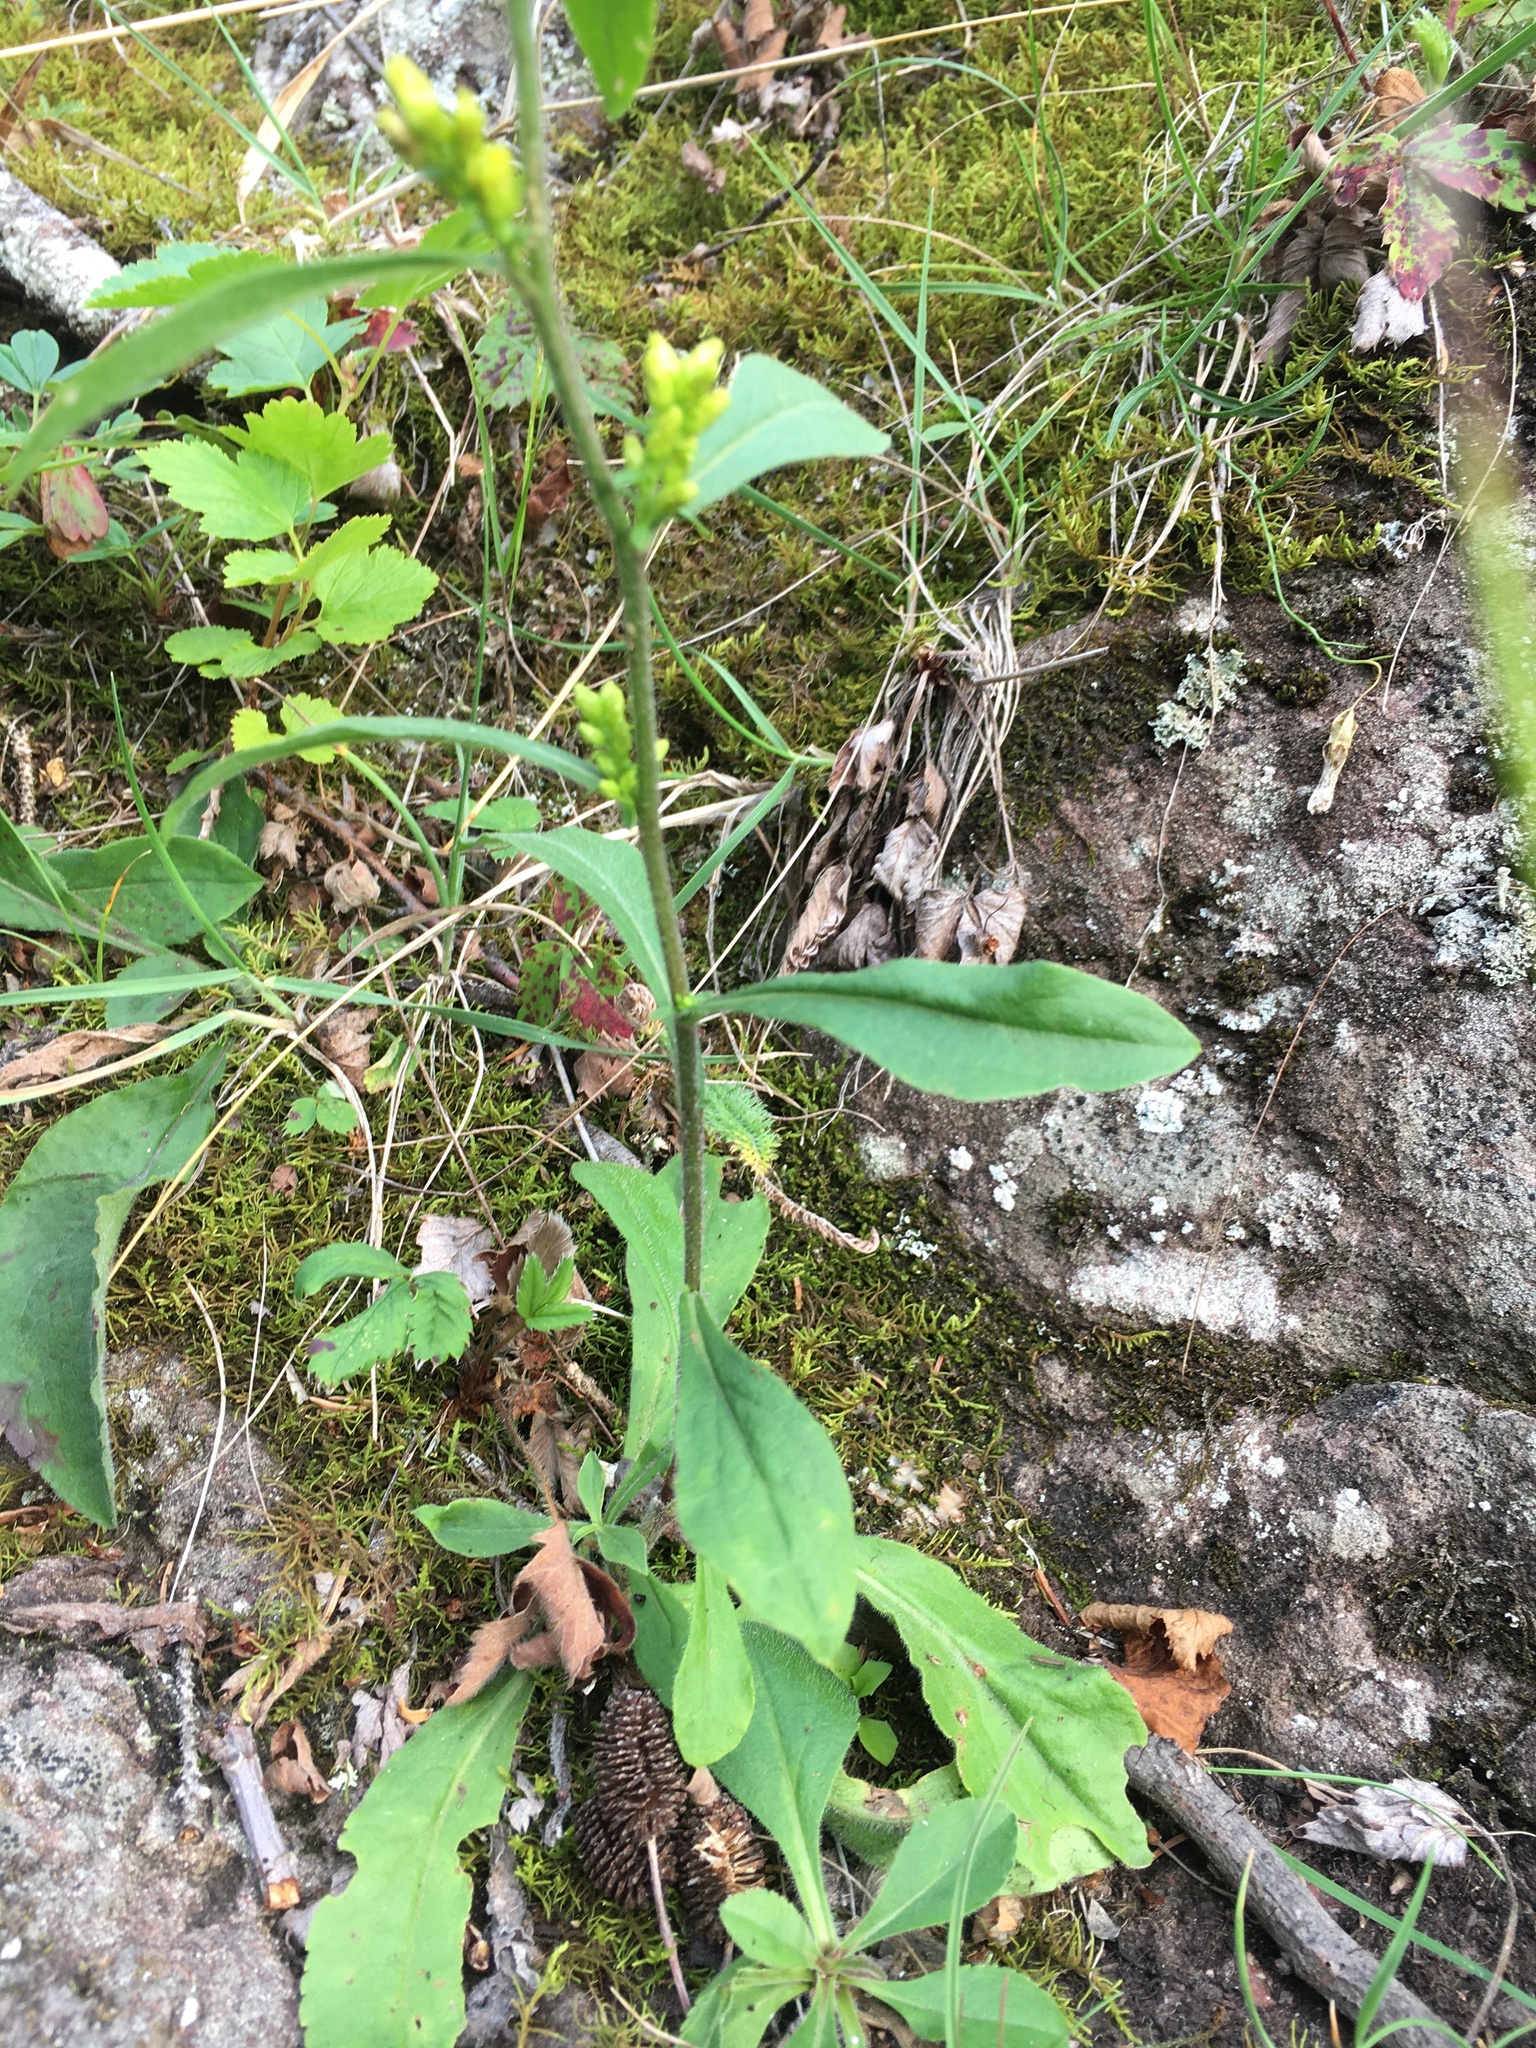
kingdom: Plantae
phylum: Tracheophyta
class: Magnoliopsida
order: Asterales
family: Asteraceae
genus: Solidago
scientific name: Solidago hispida
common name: Hairy goldenrod
